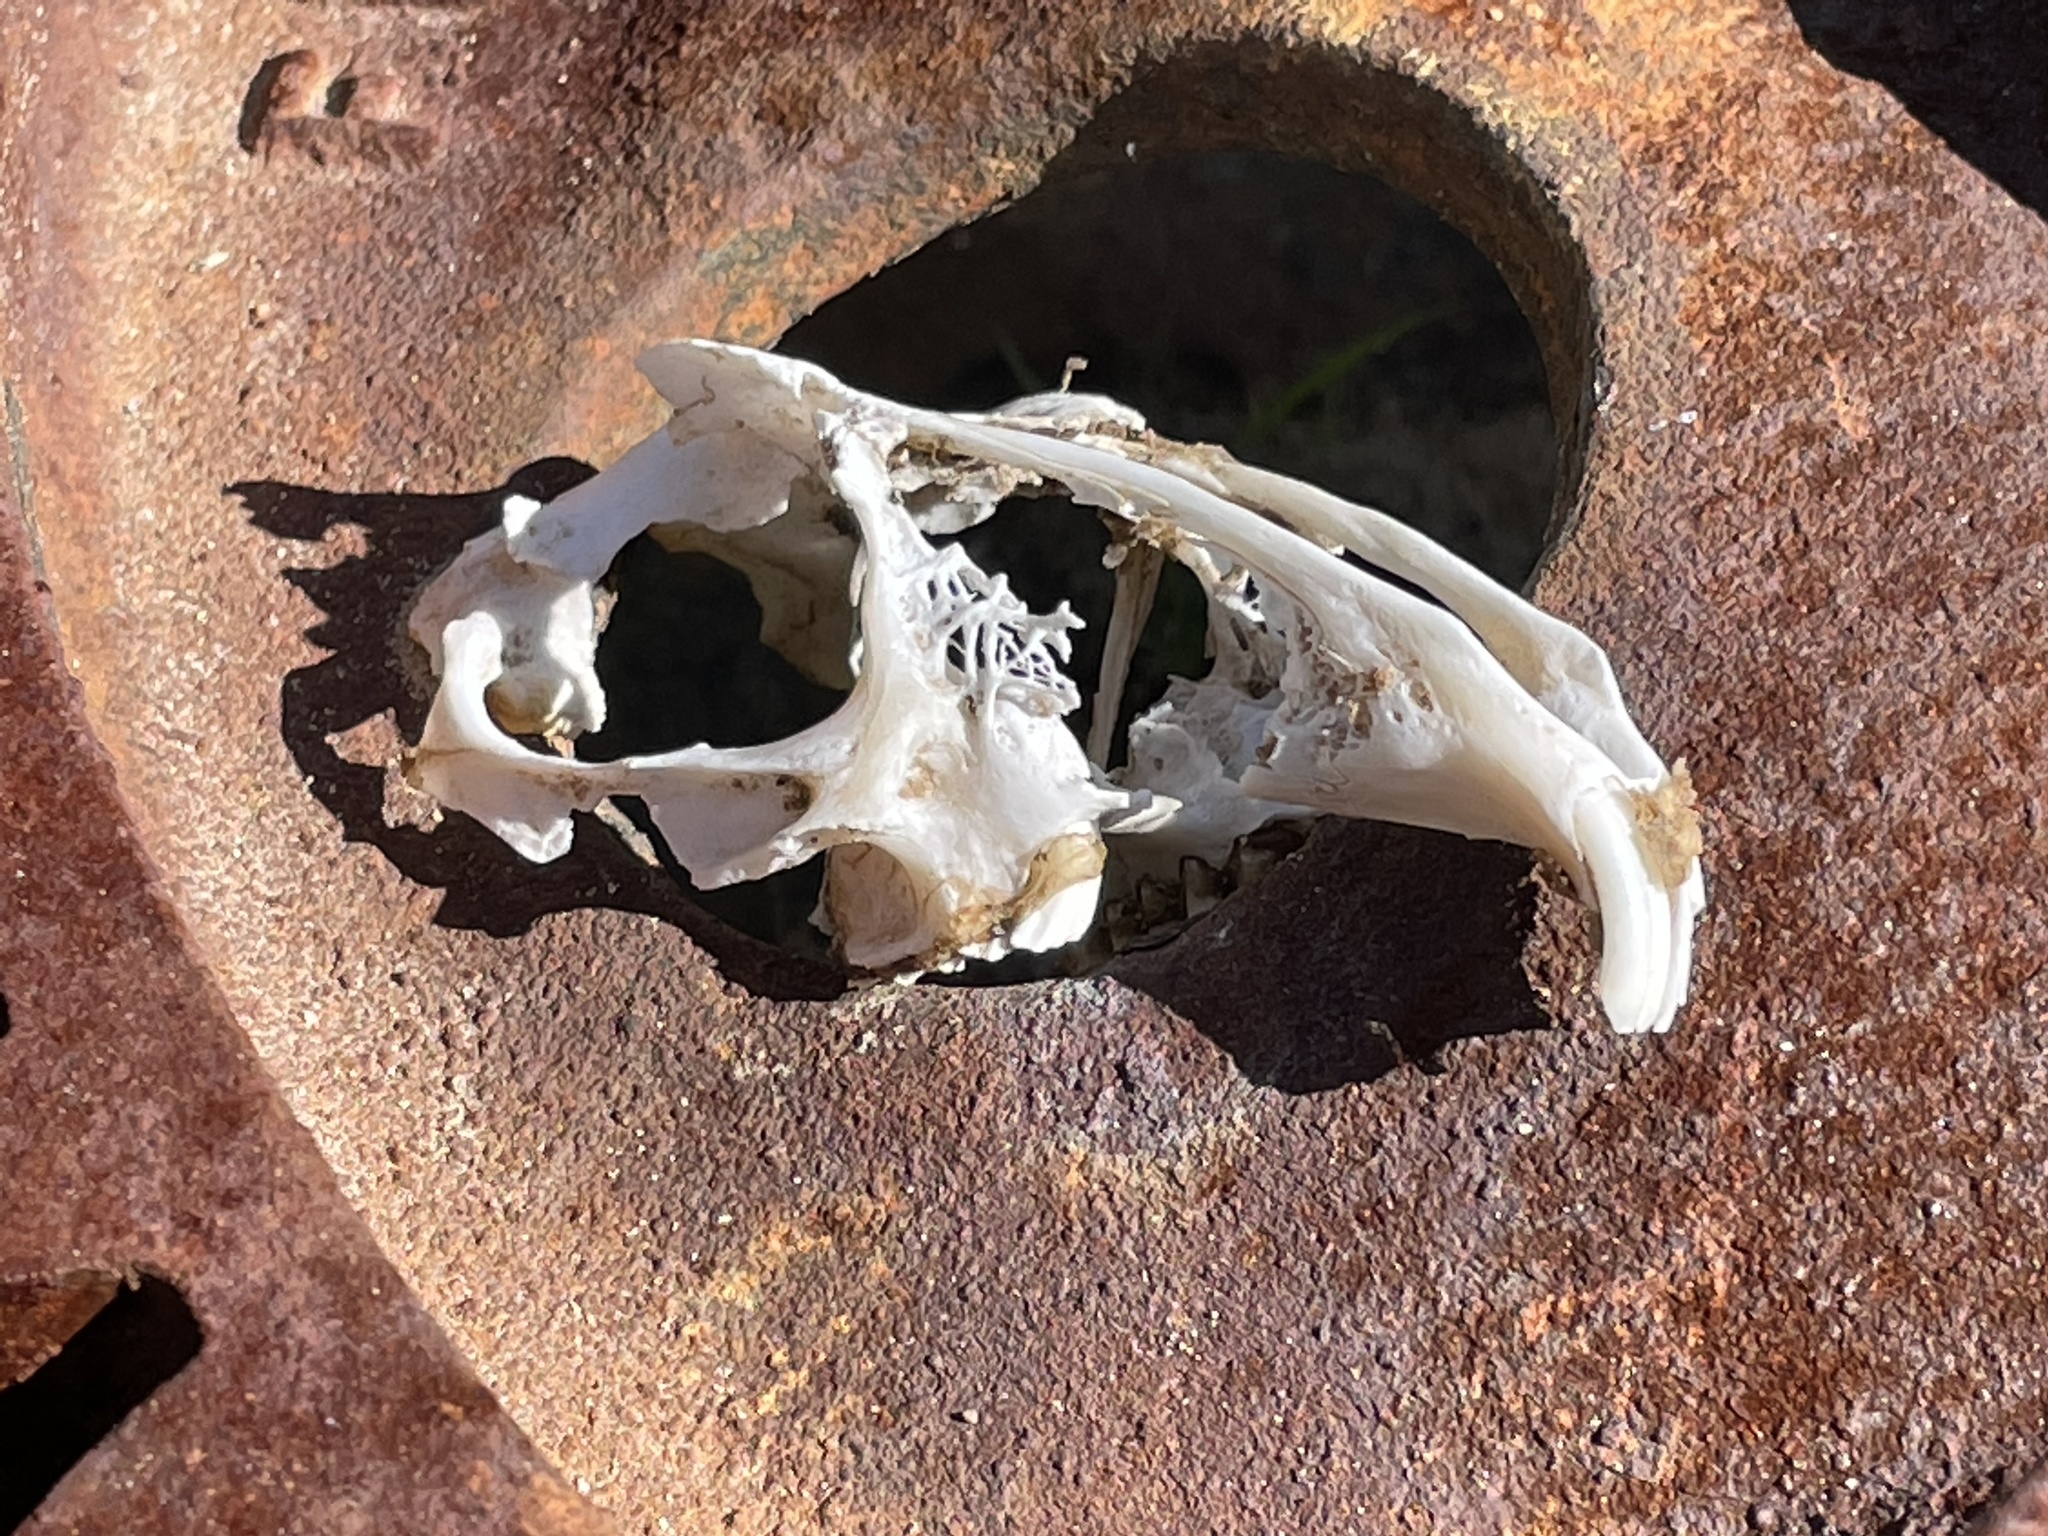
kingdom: Animalia
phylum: Chordata
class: Mammalia
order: Lagomorpha
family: Leporidae
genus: Lepus
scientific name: Lepus californicus
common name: Black-tailed jackrabbit
